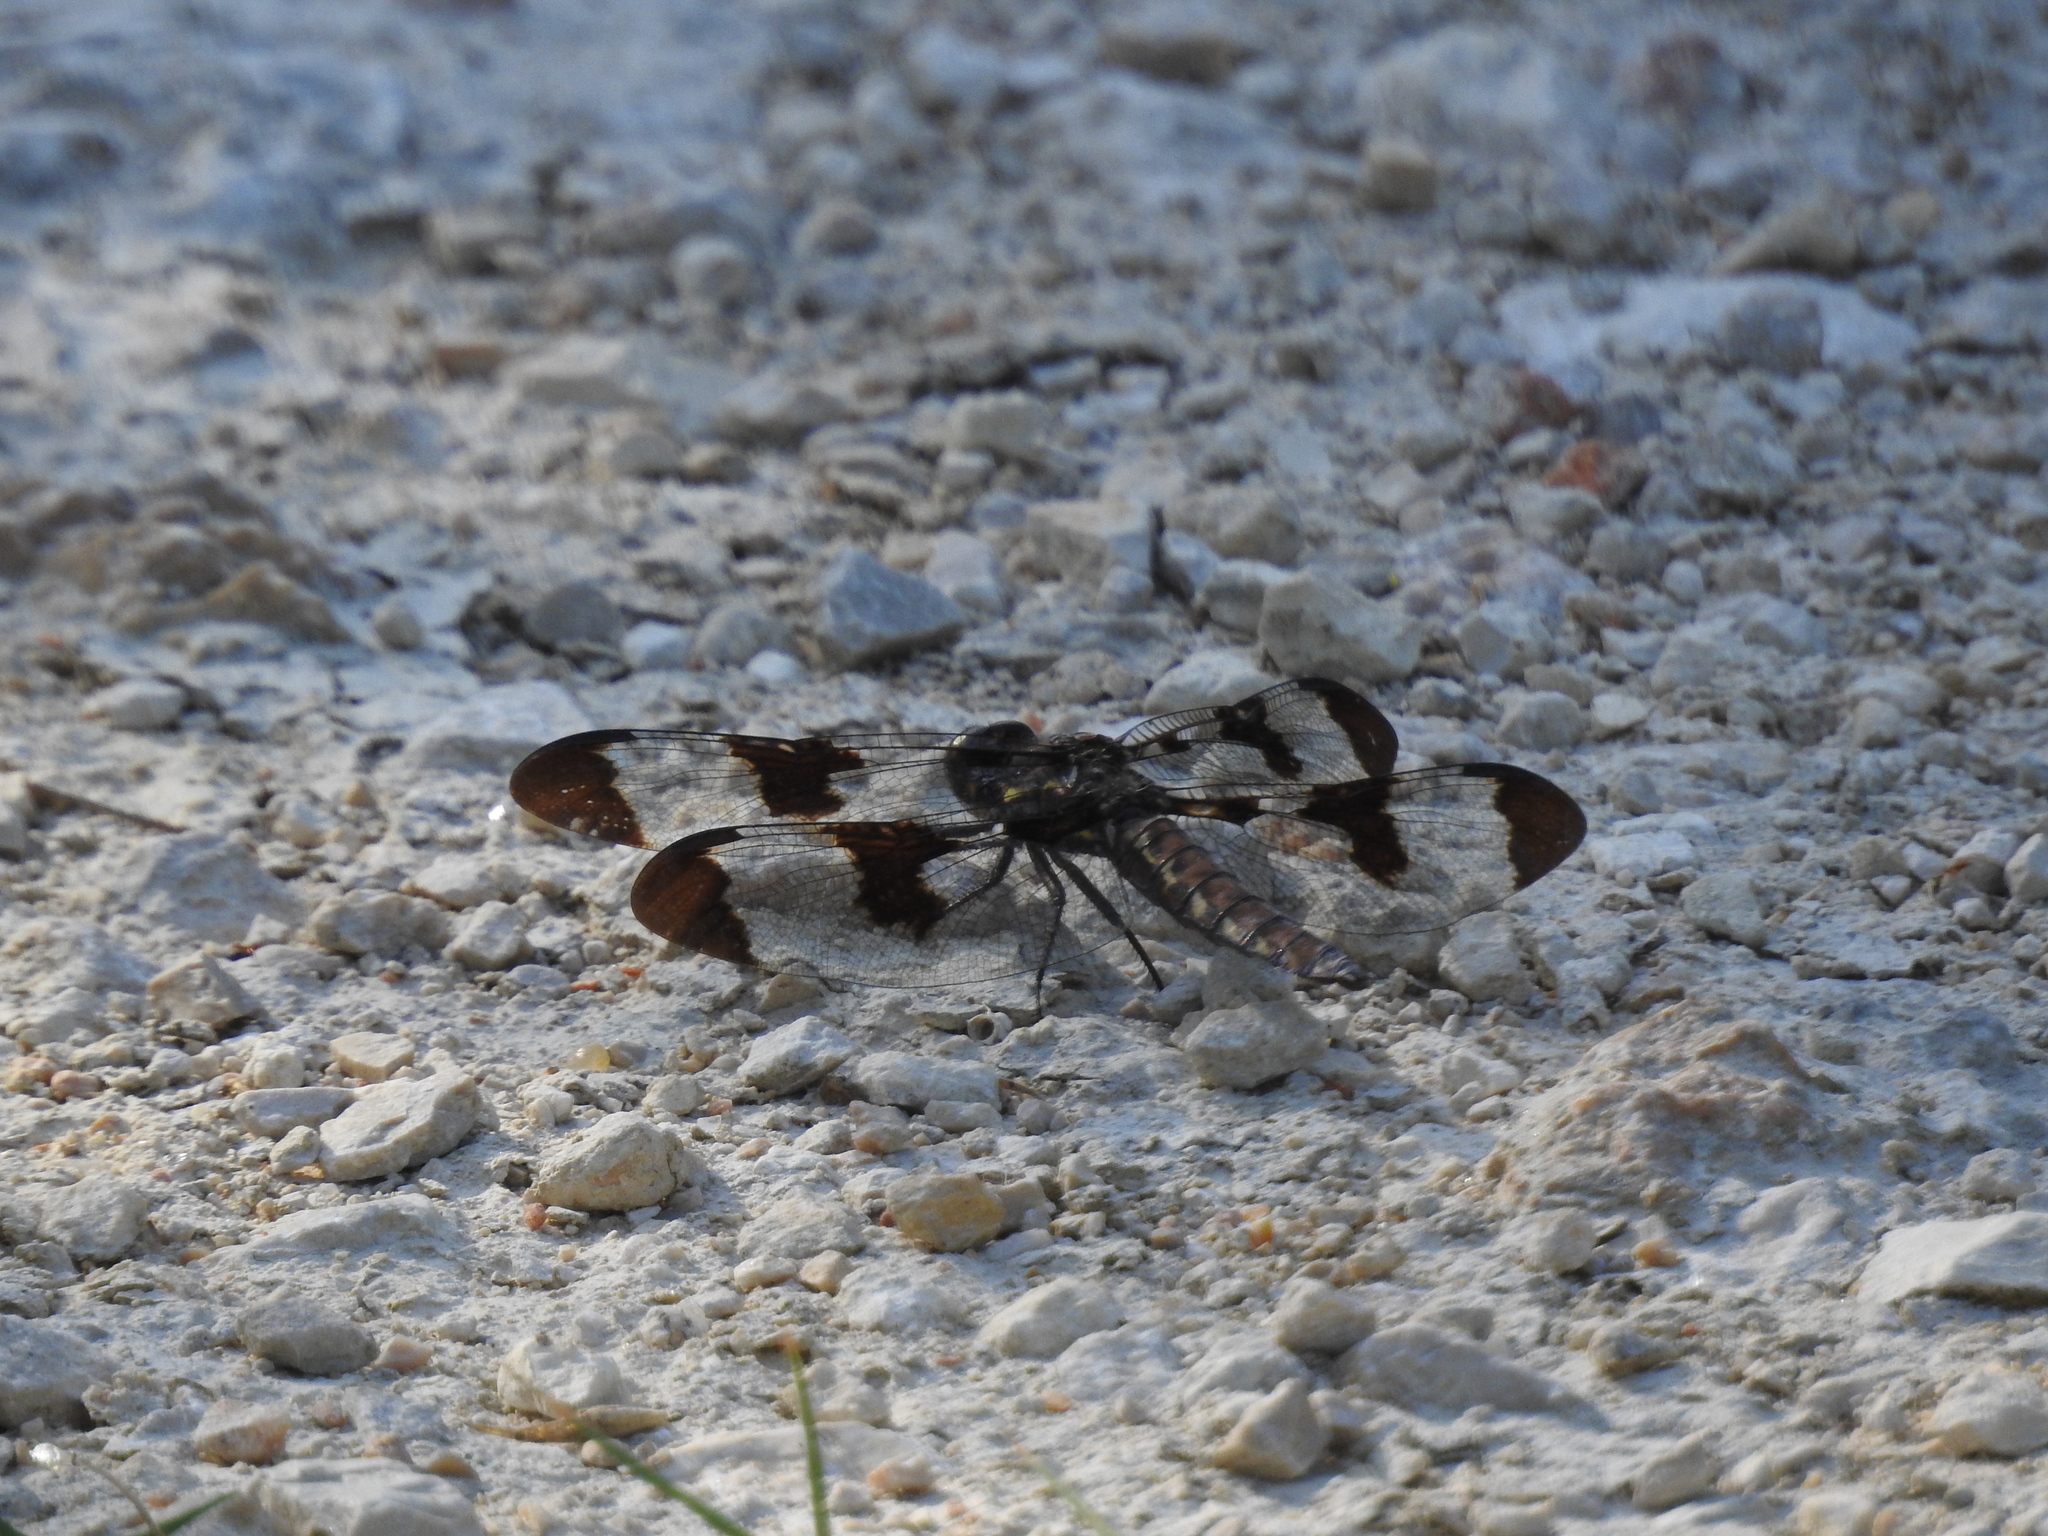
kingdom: Animalia
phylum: Arthropoda
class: Insecta
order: Odonata
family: Libellulidae
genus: Plathemis
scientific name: Plathemis lydia
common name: Common whitetail
